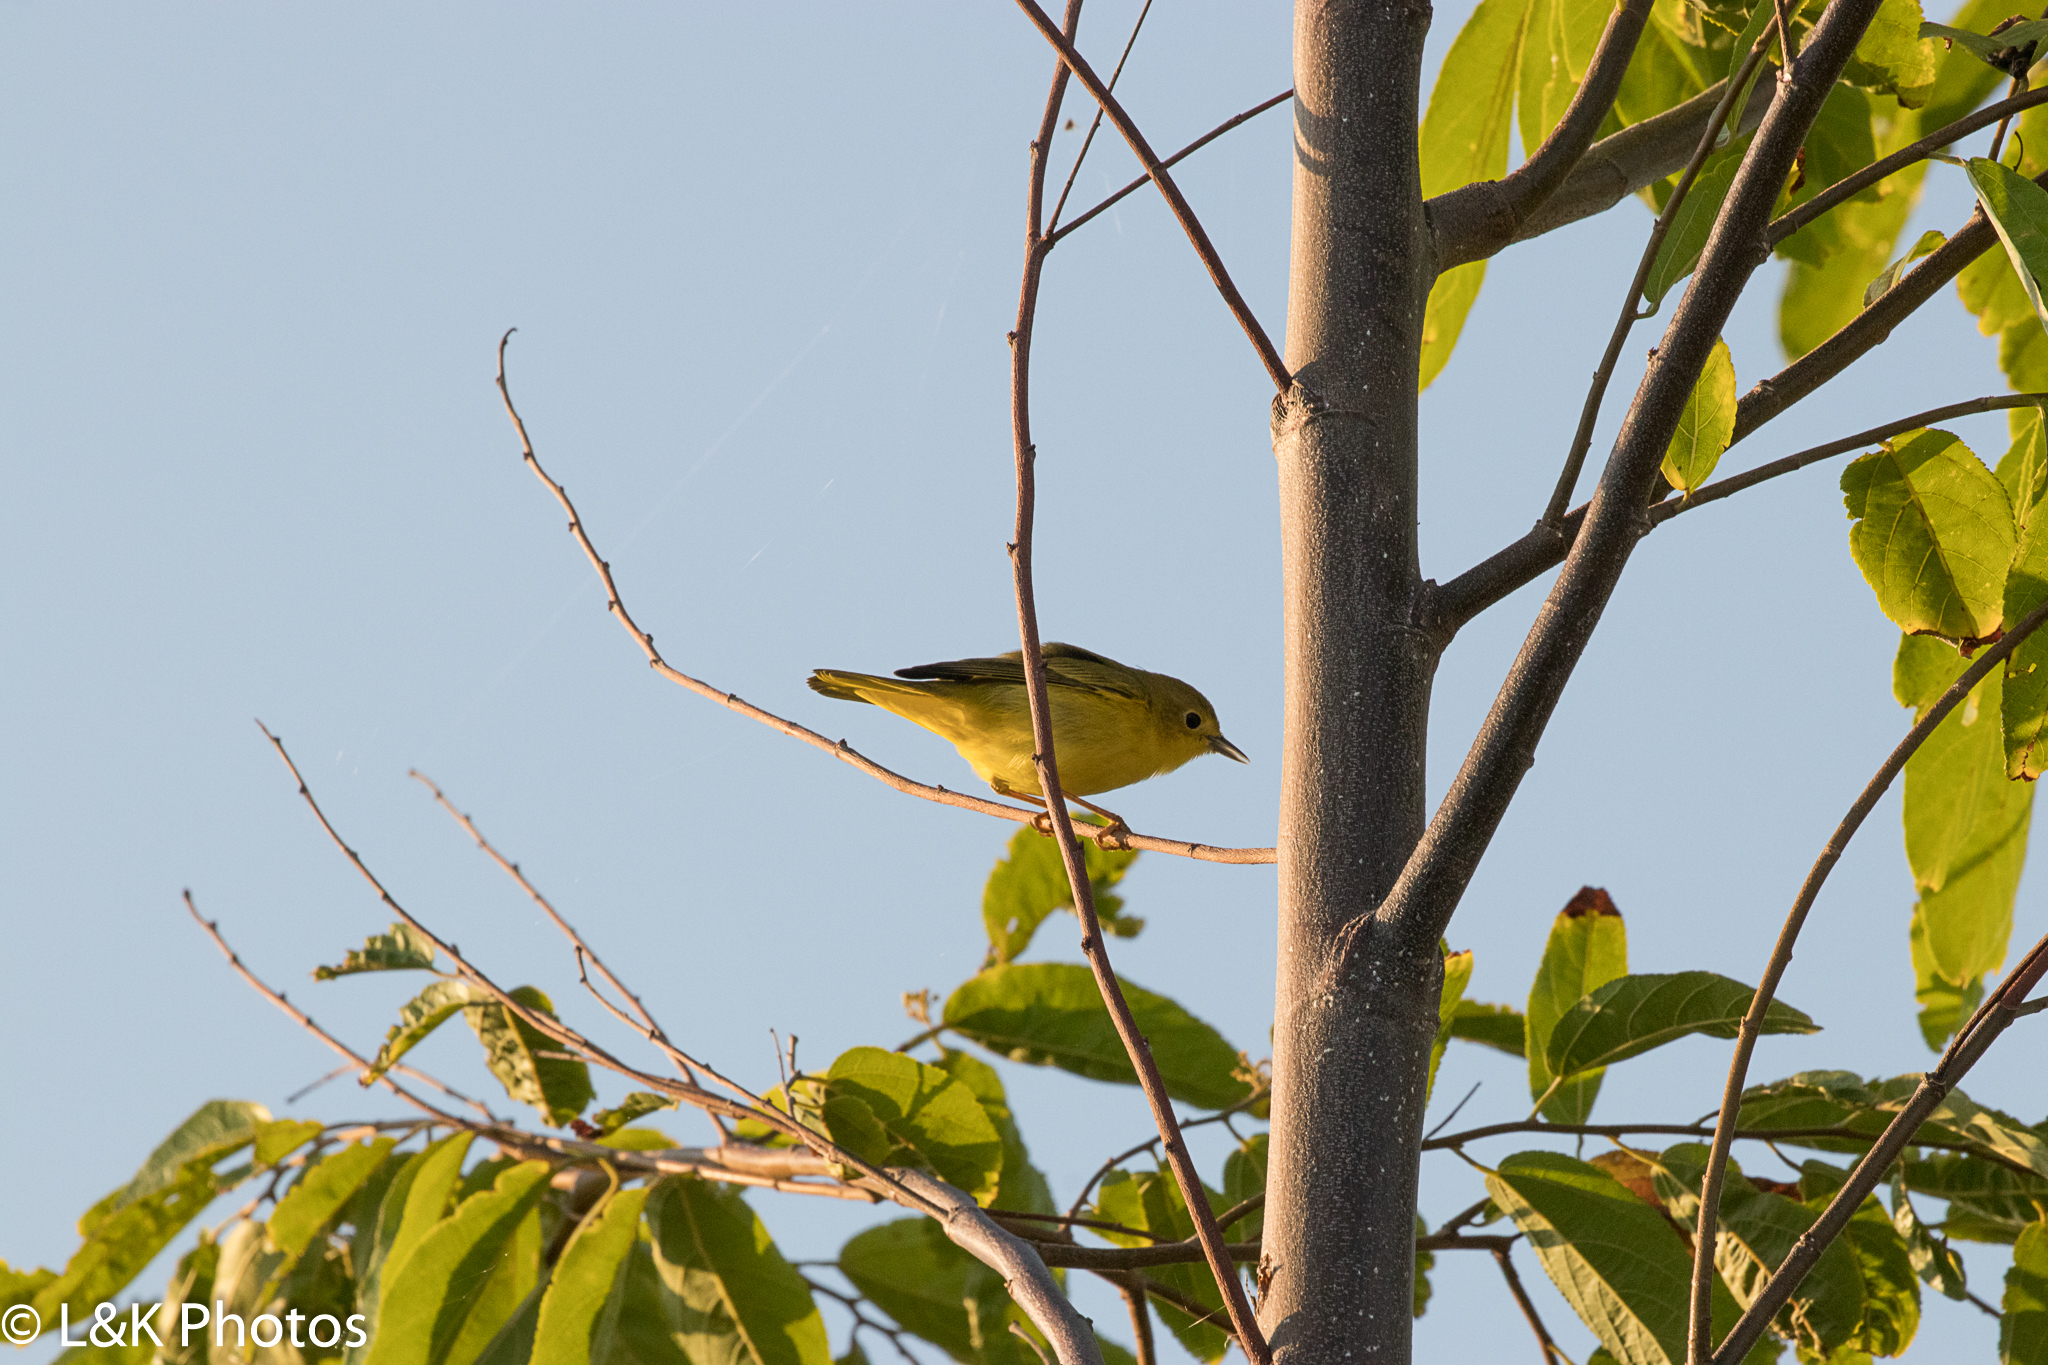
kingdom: Animalia
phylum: Chordata
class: Aves
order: Passeriformes
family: Parulidae
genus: Setophaga
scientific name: Setophaga petechia
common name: Yellow warbler
